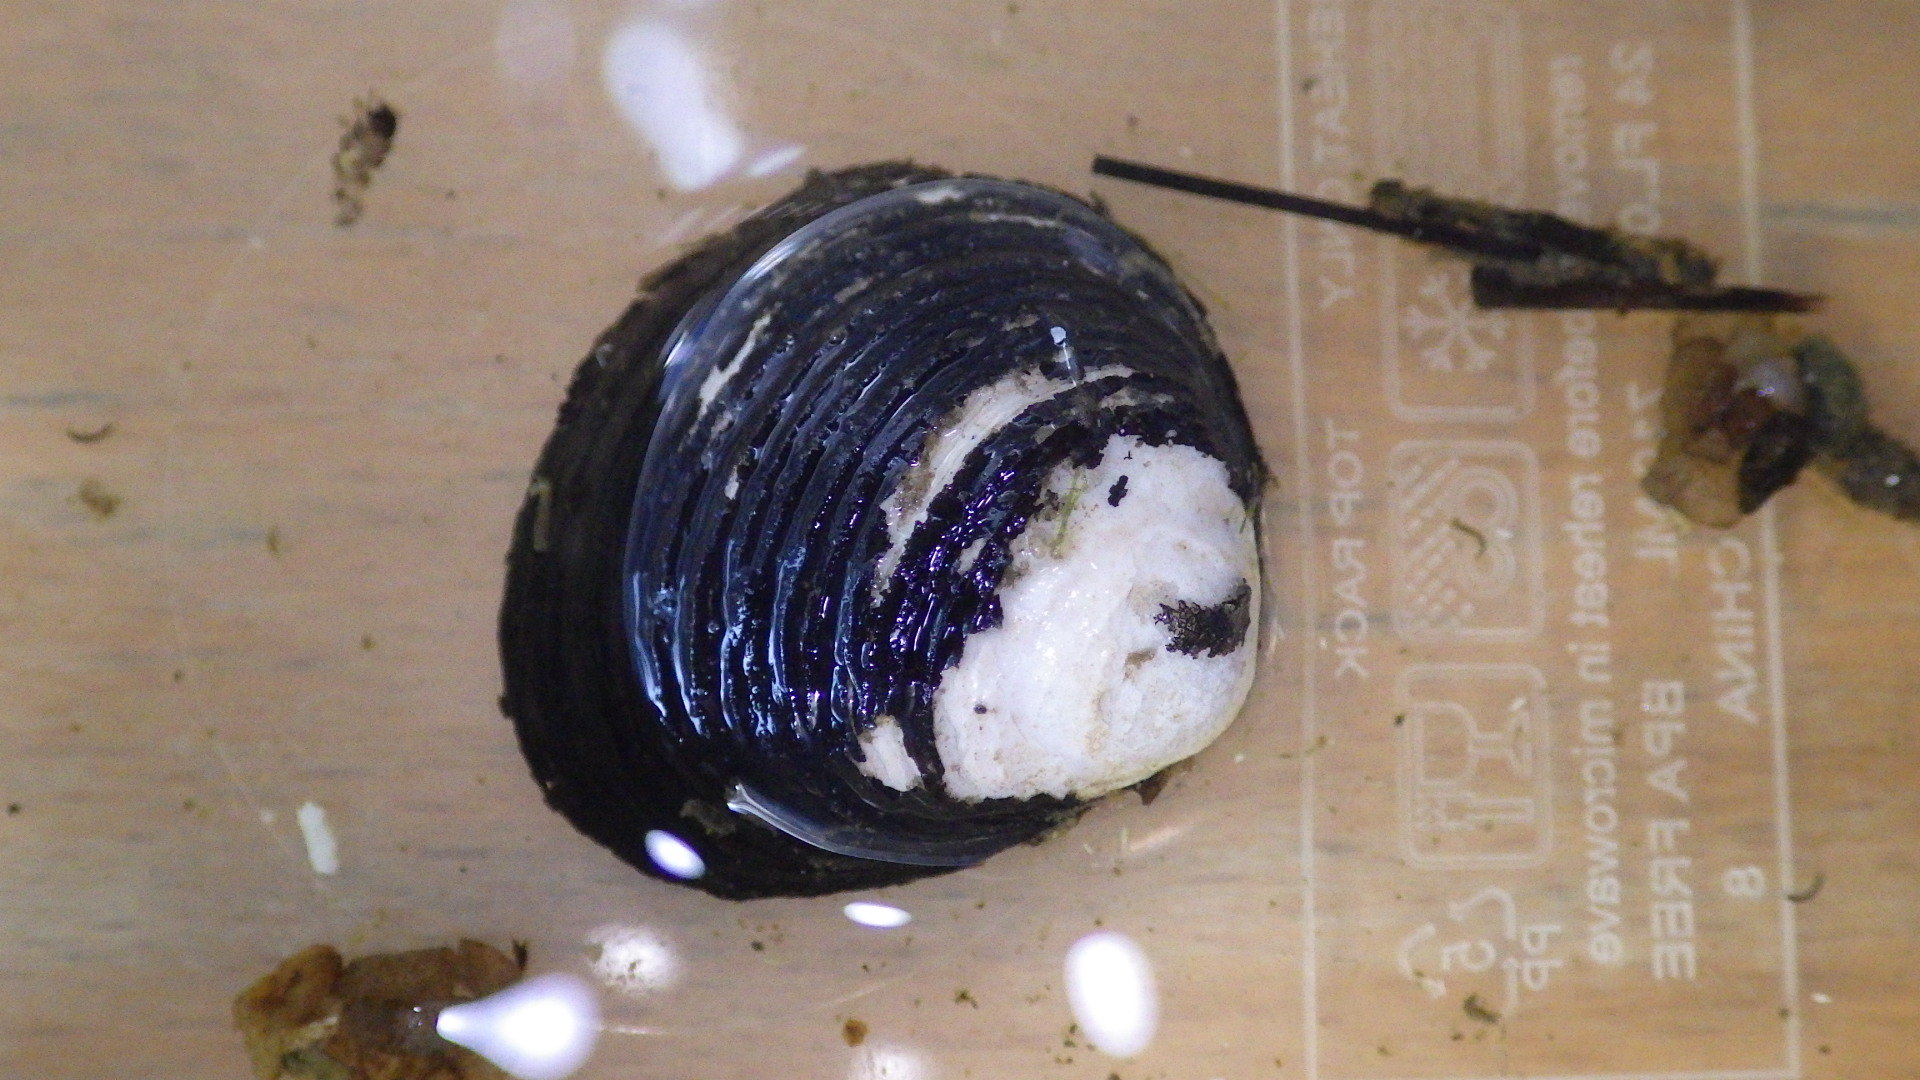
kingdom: Animalia
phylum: Mollusca
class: Bivalvia
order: Venerida
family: Cyrenidae
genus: Corbicula
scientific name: Corbicula fluminea
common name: Asian clam
